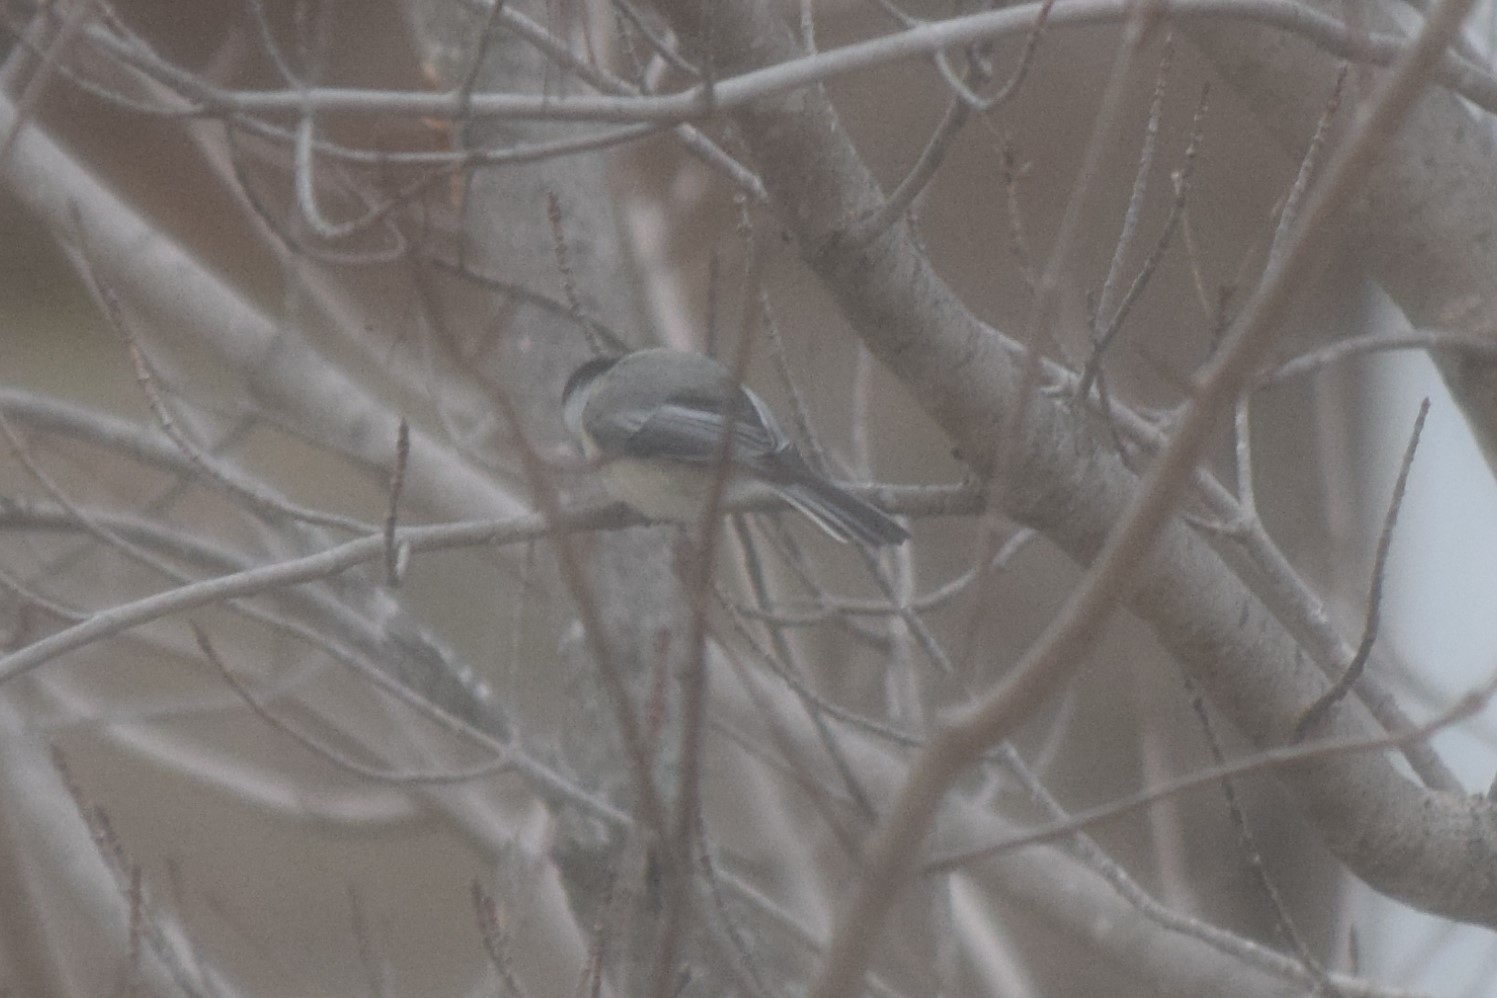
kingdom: Animalia
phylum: Chordata
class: Aves
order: Passeriformes
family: Paridae
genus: Poecile
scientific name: Poecile atricapillus
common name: Black-capped chickadee
